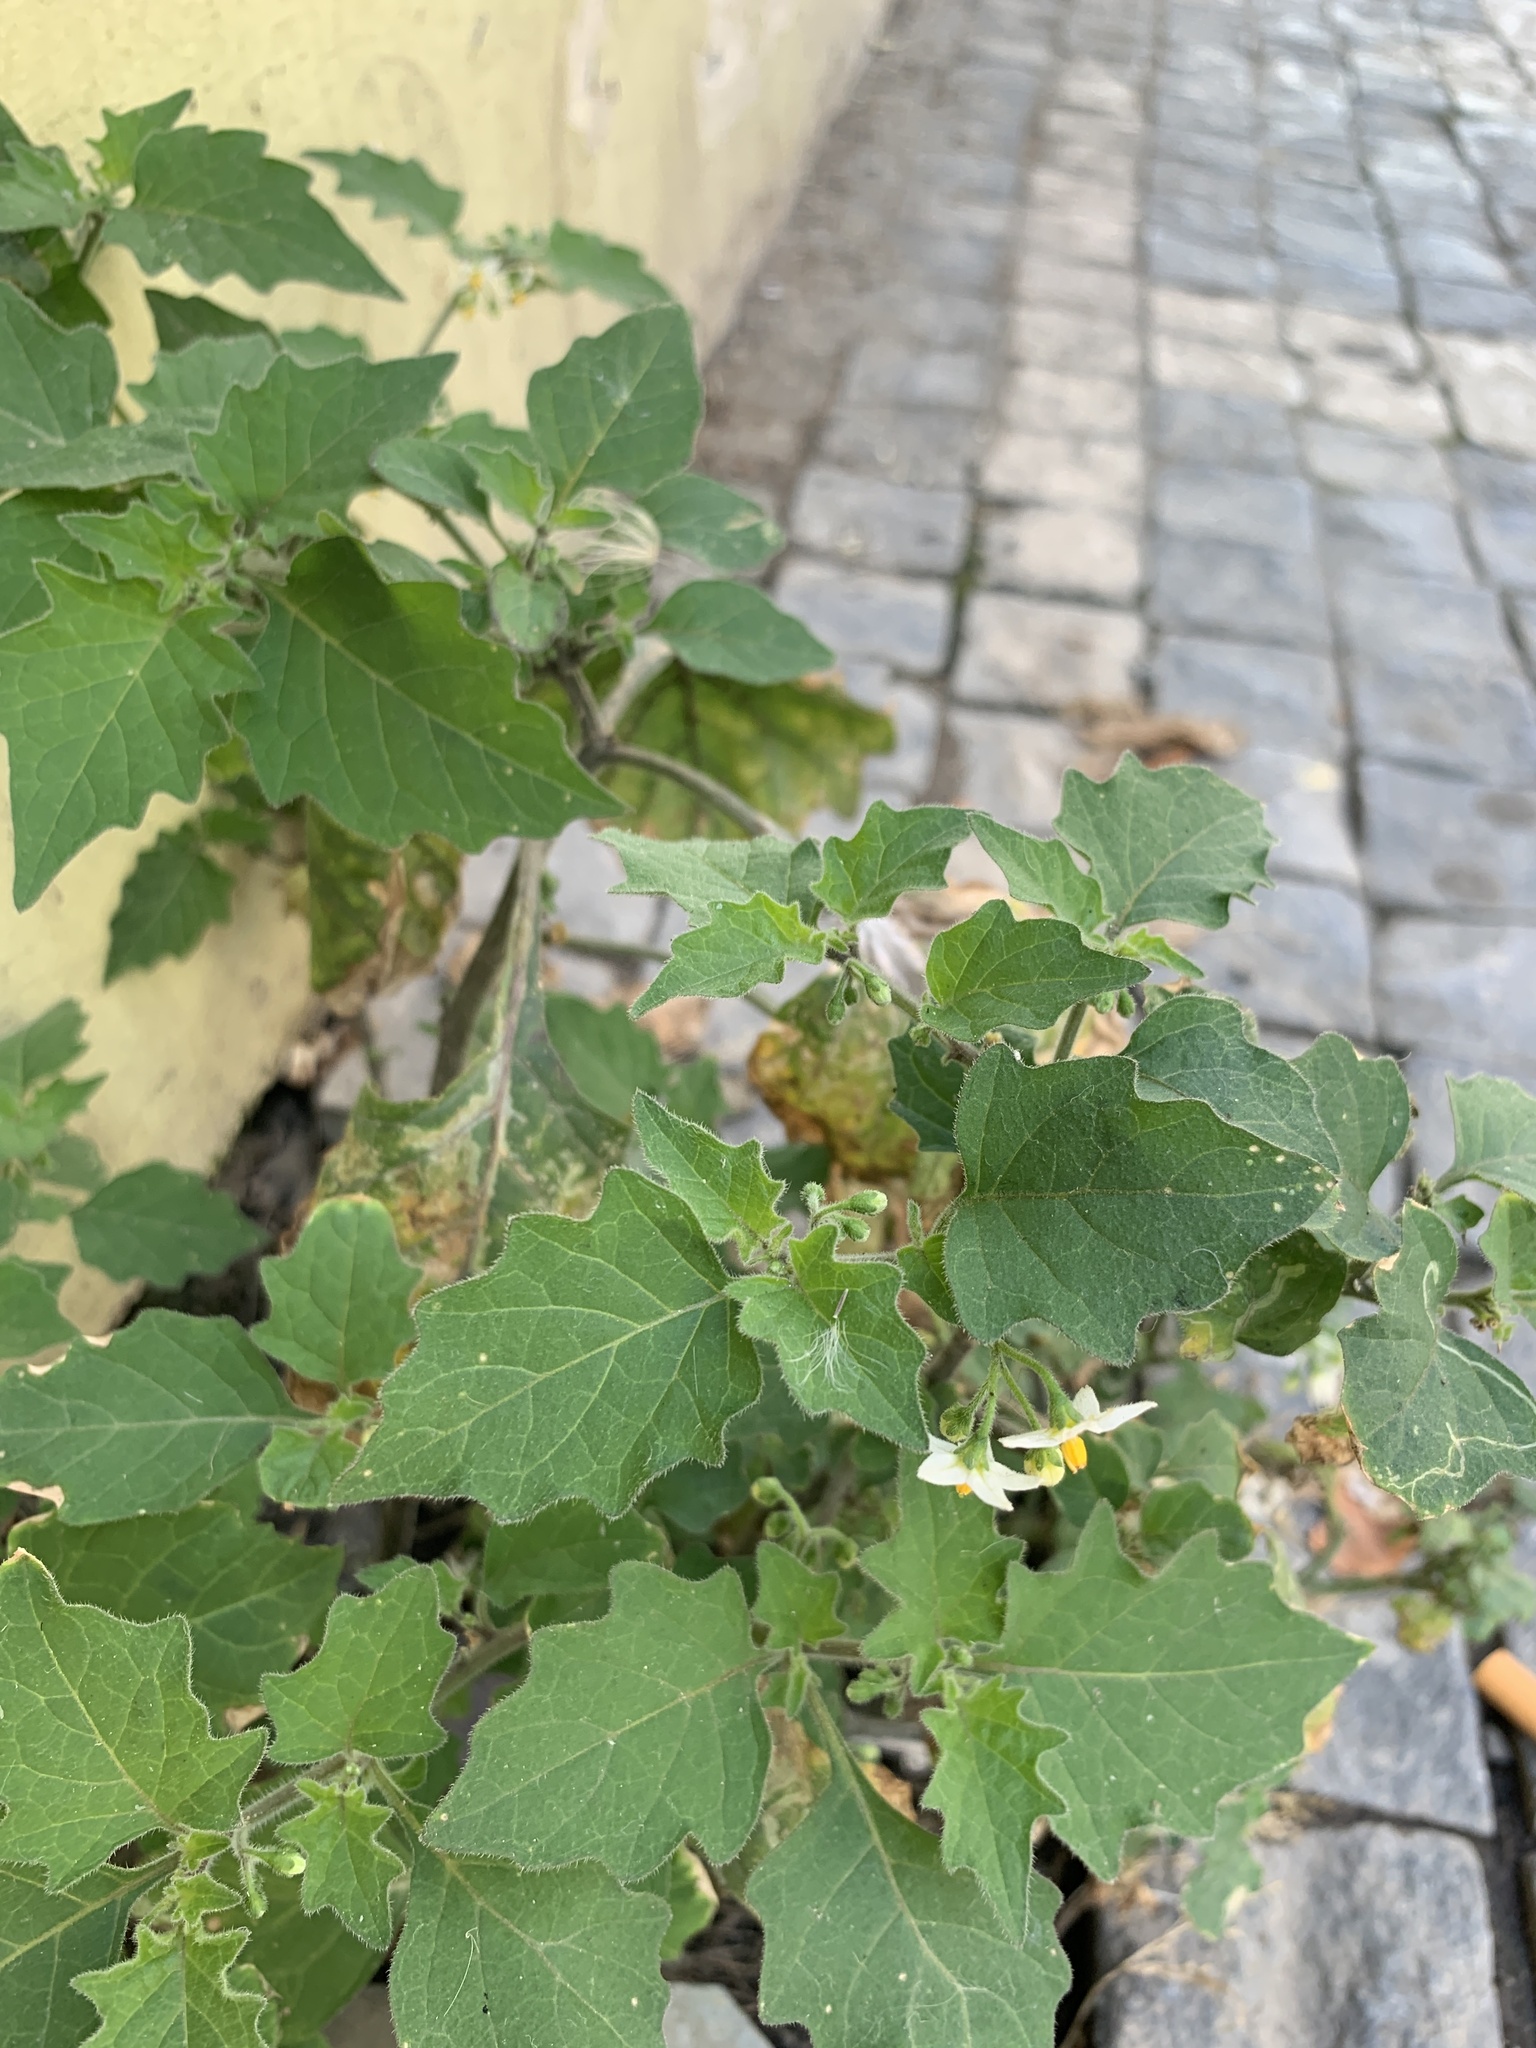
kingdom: Plantae
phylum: Tracheophyta
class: Magnoliopsida
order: Solanales
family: Solanaceae
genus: Solanum
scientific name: Solanum nigrum
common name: Black nightshade
